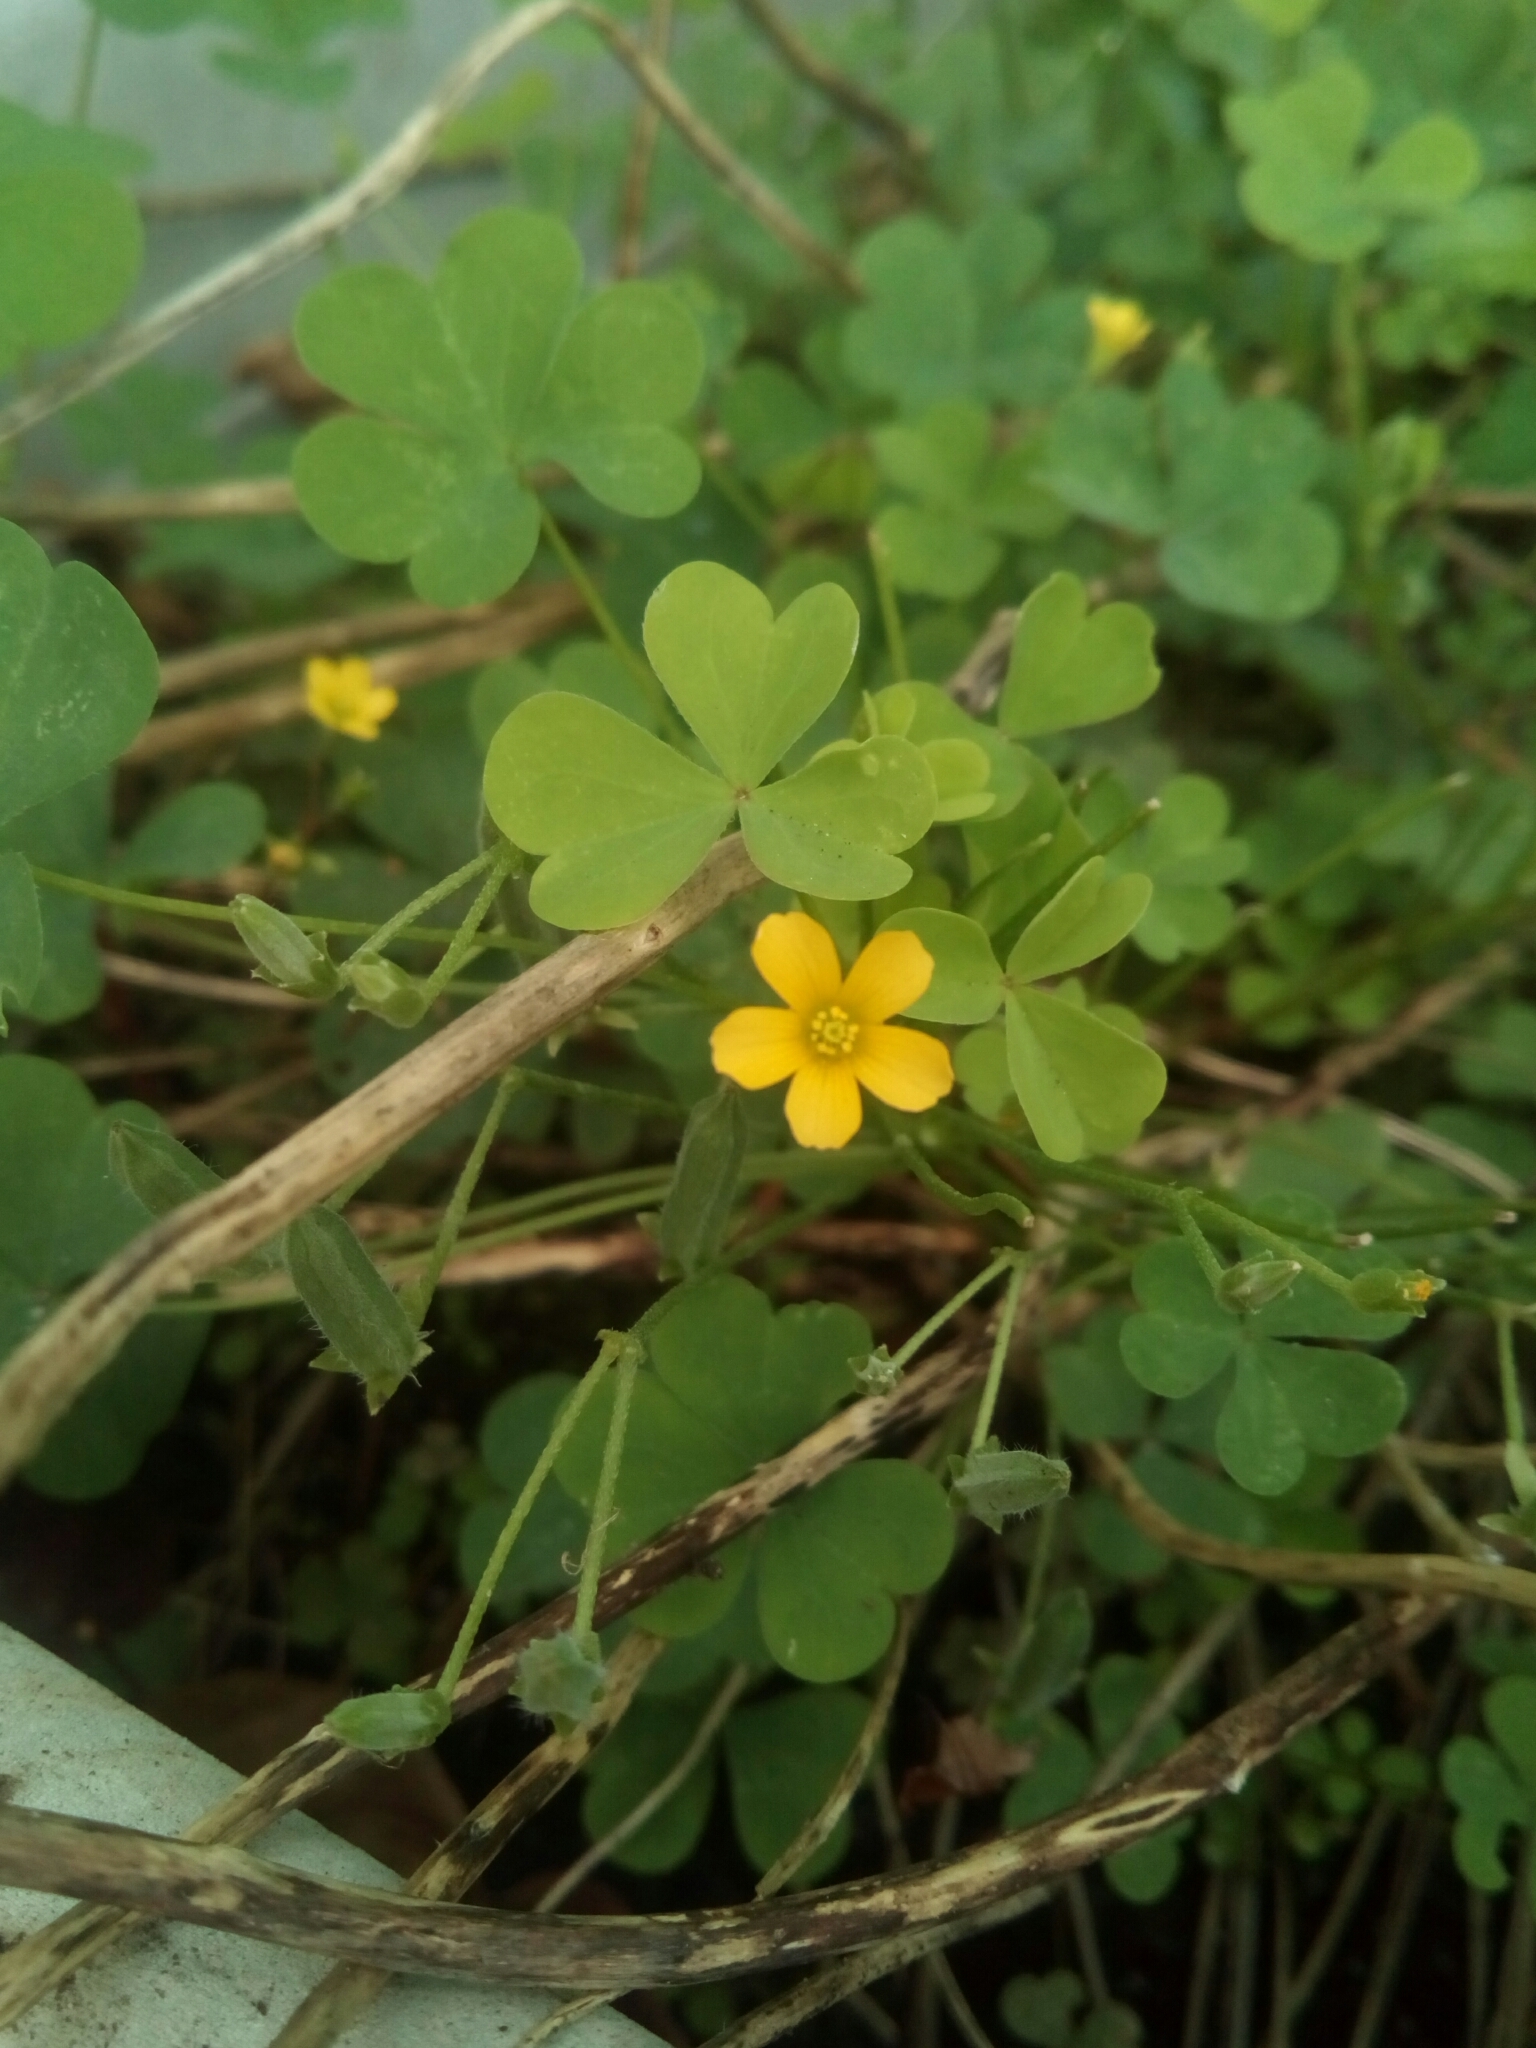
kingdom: Plantae
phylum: Tracheophyta
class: Magnoliopsida
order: Oxalidales
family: Oxalidaceae
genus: Oxalis
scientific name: Oxalis dillenii
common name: Sussex yellow-sorrel
